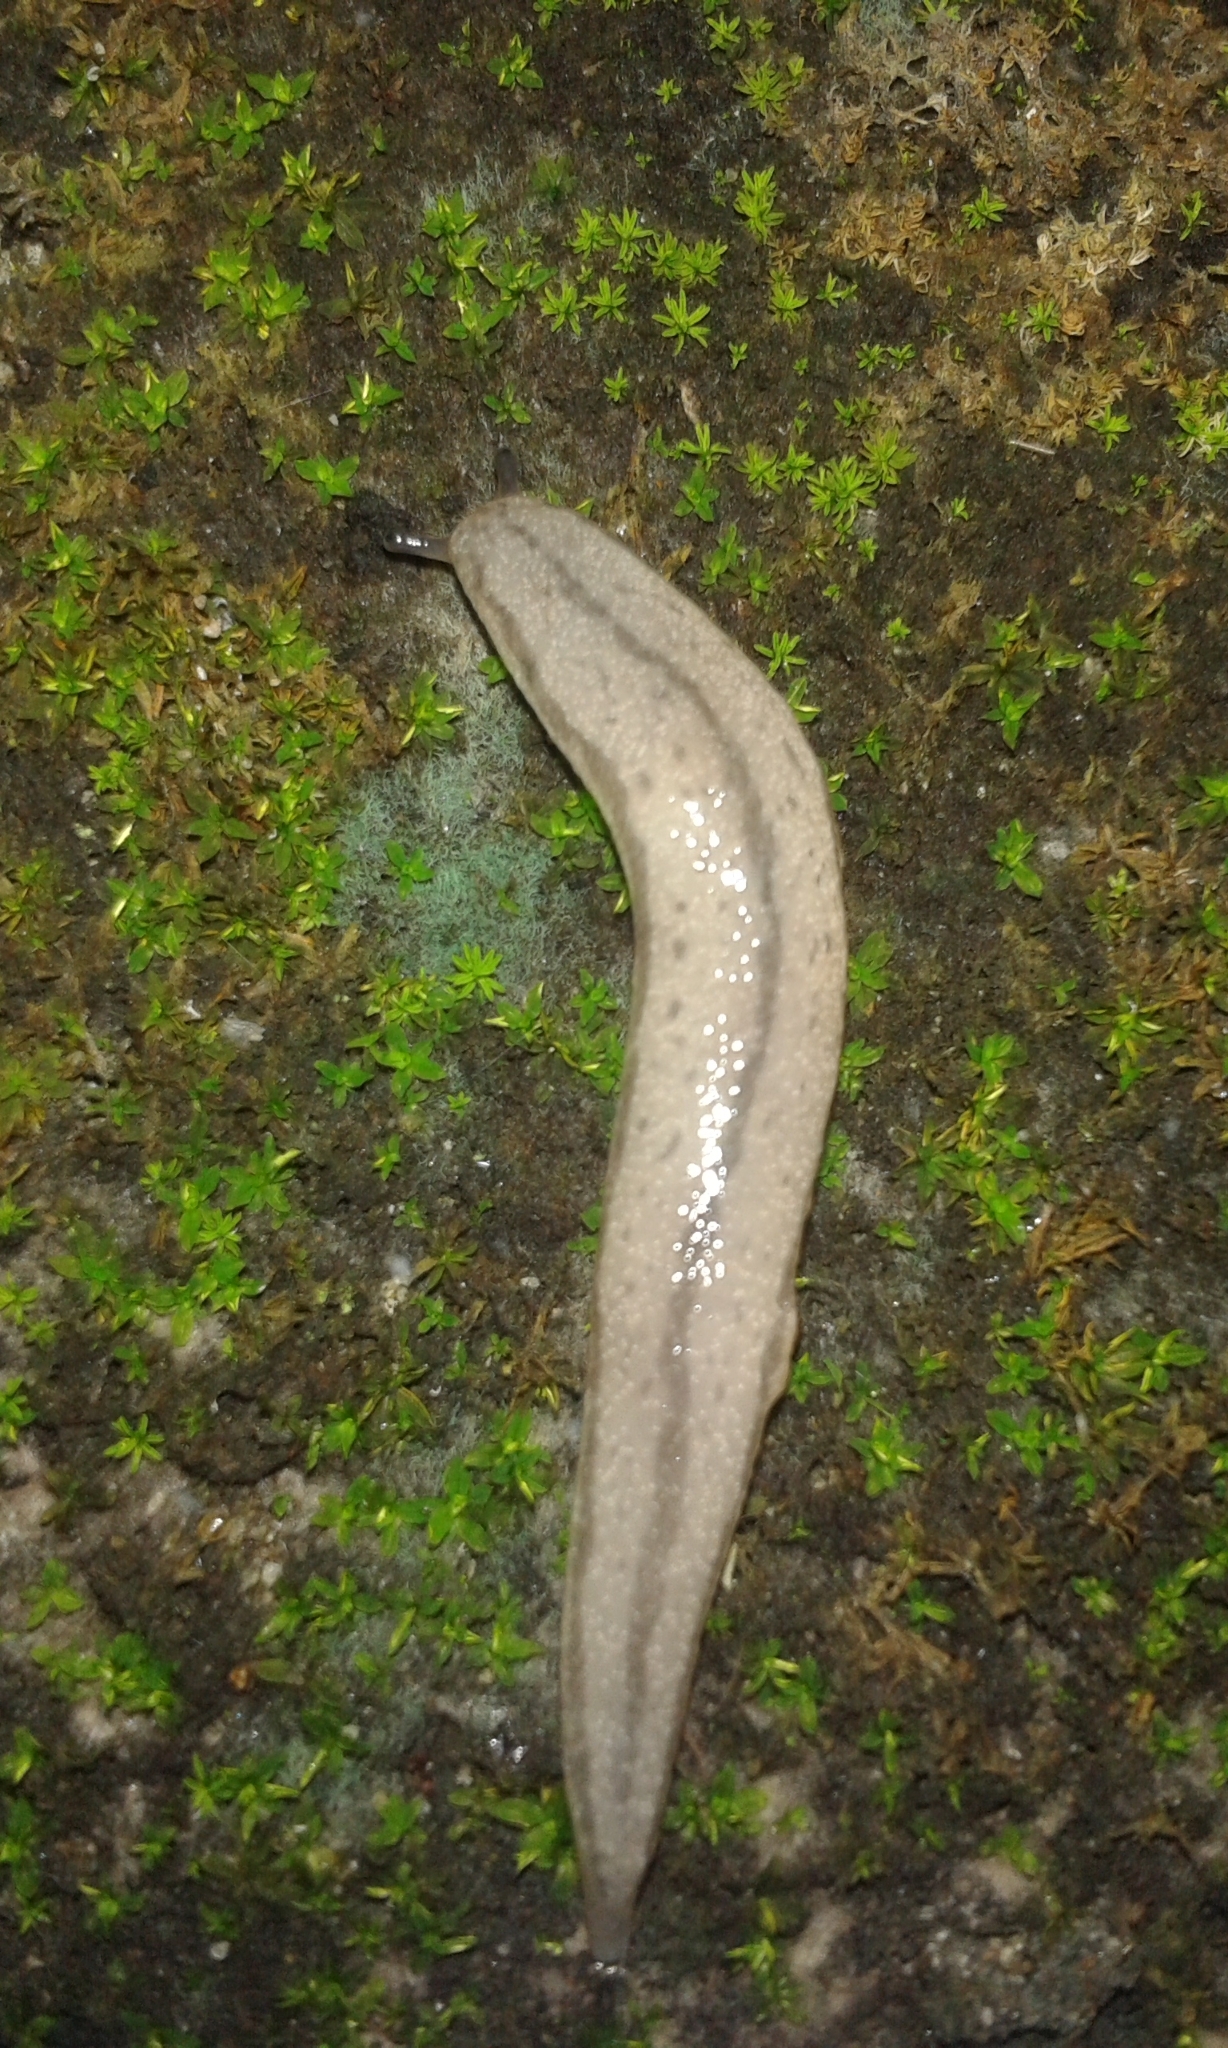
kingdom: Animalia
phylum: Mollusca
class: Gastropoda
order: Stylommatophora
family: Philomycidae
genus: Meghimatium
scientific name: Meghimatium bilineatum
